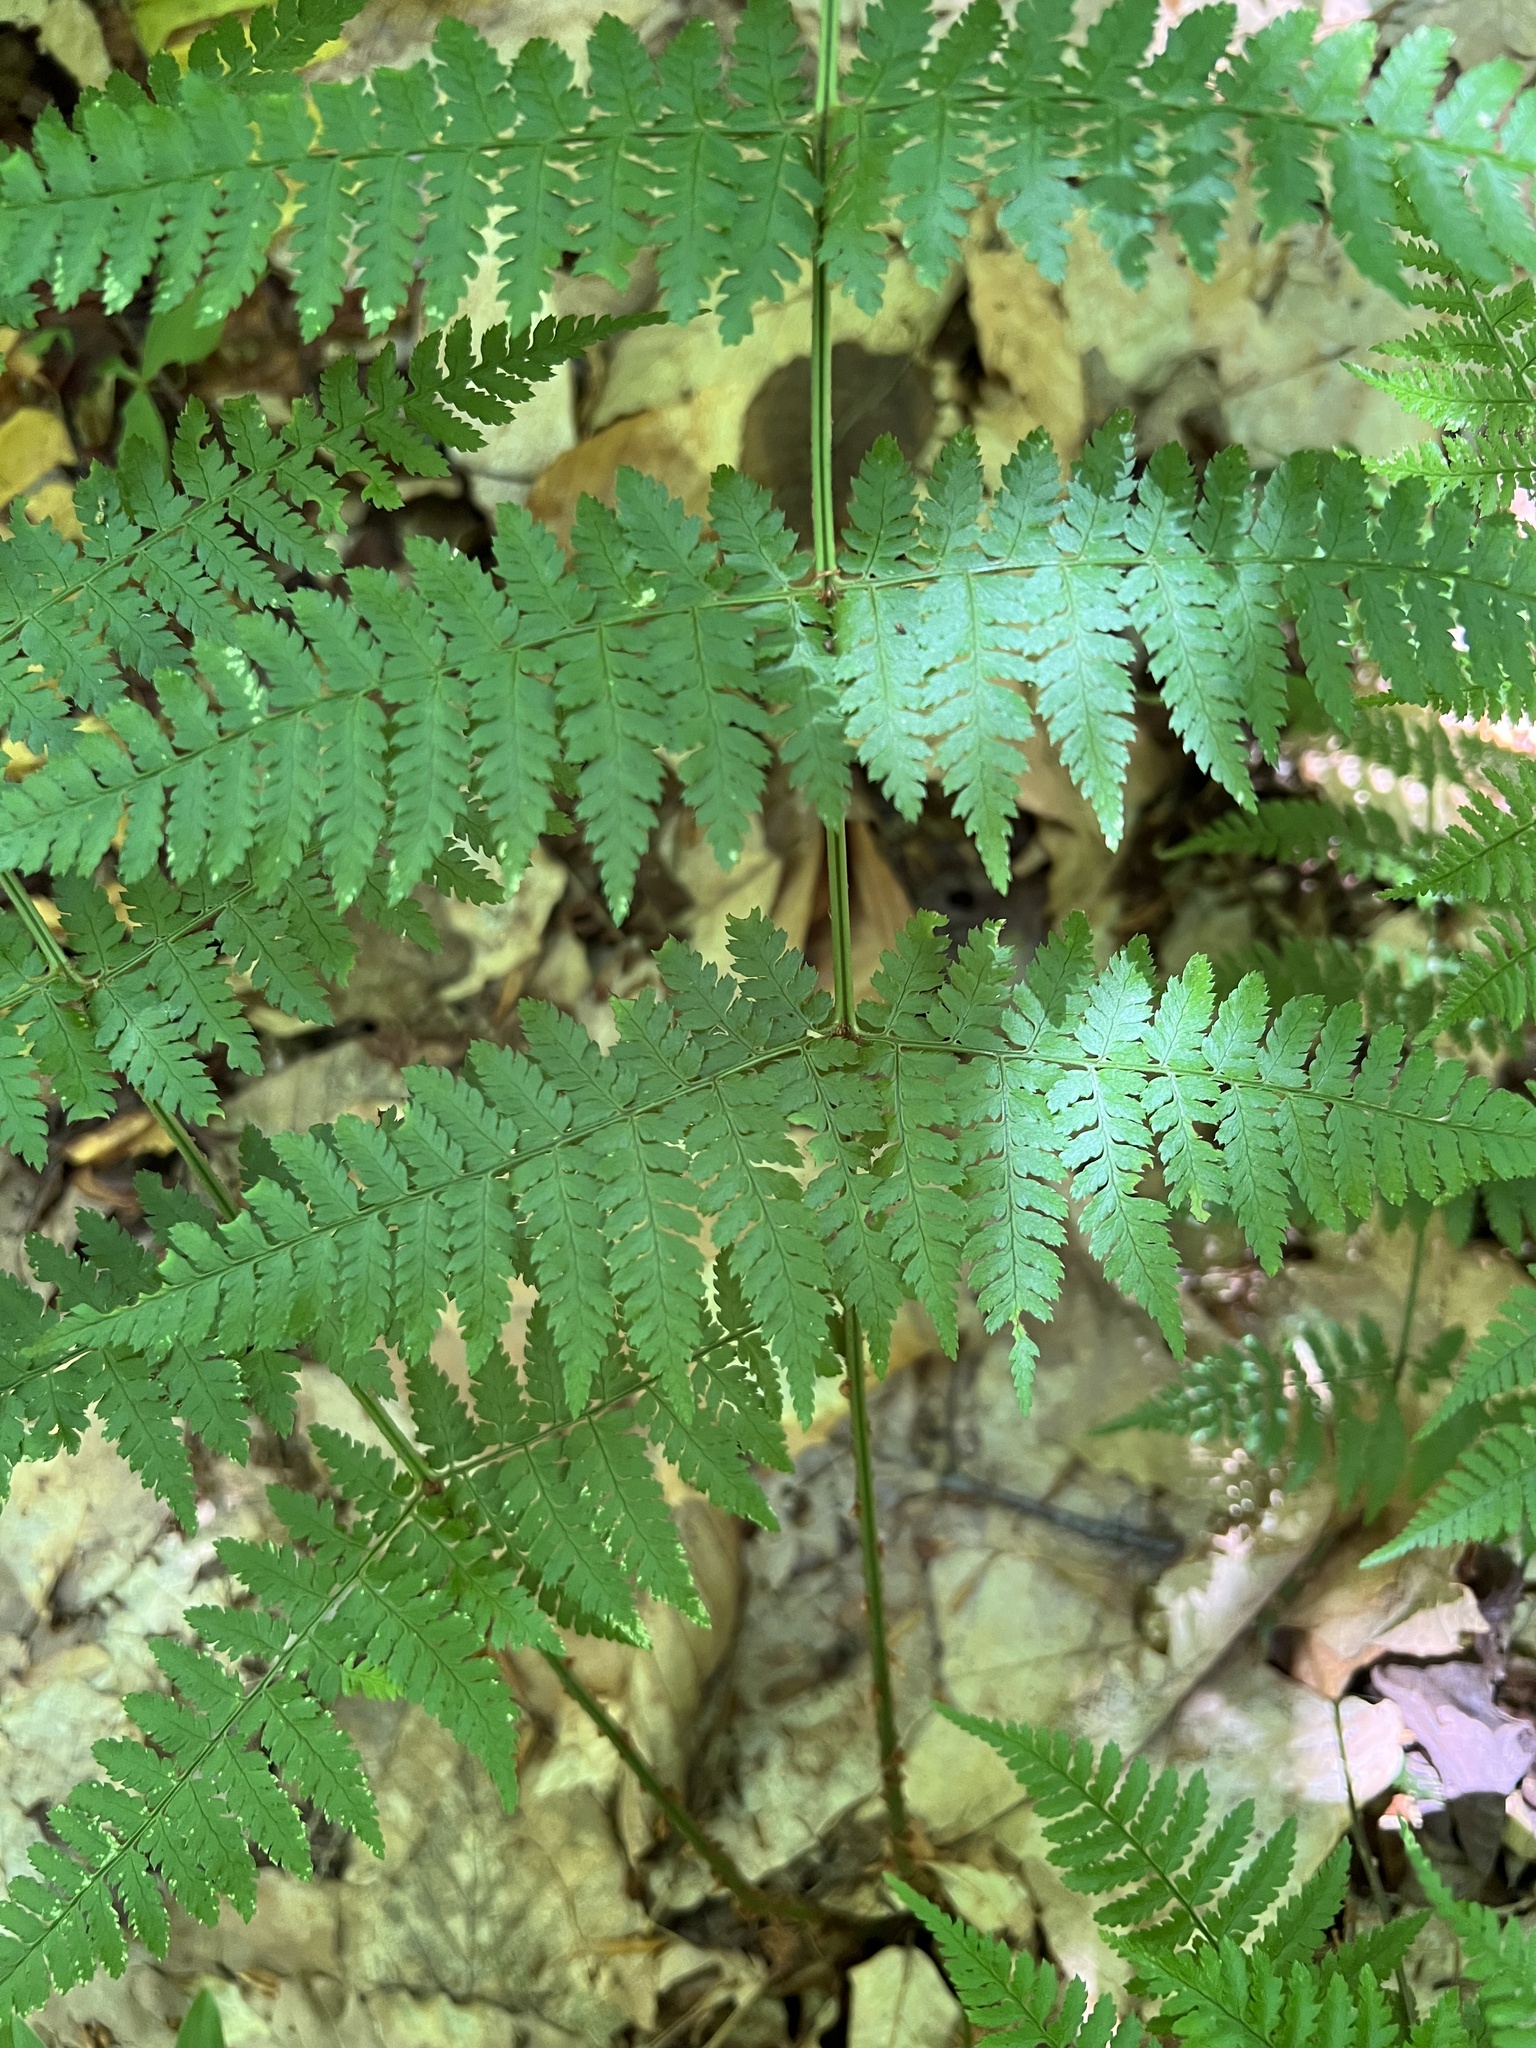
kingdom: Plantae
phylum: Tracheophyta
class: Polypodiopsida
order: Polypodiales
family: Dryopteridaceae
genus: Dryopteris
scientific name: Dryopteris intermedia
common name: Evergreen wood fern
